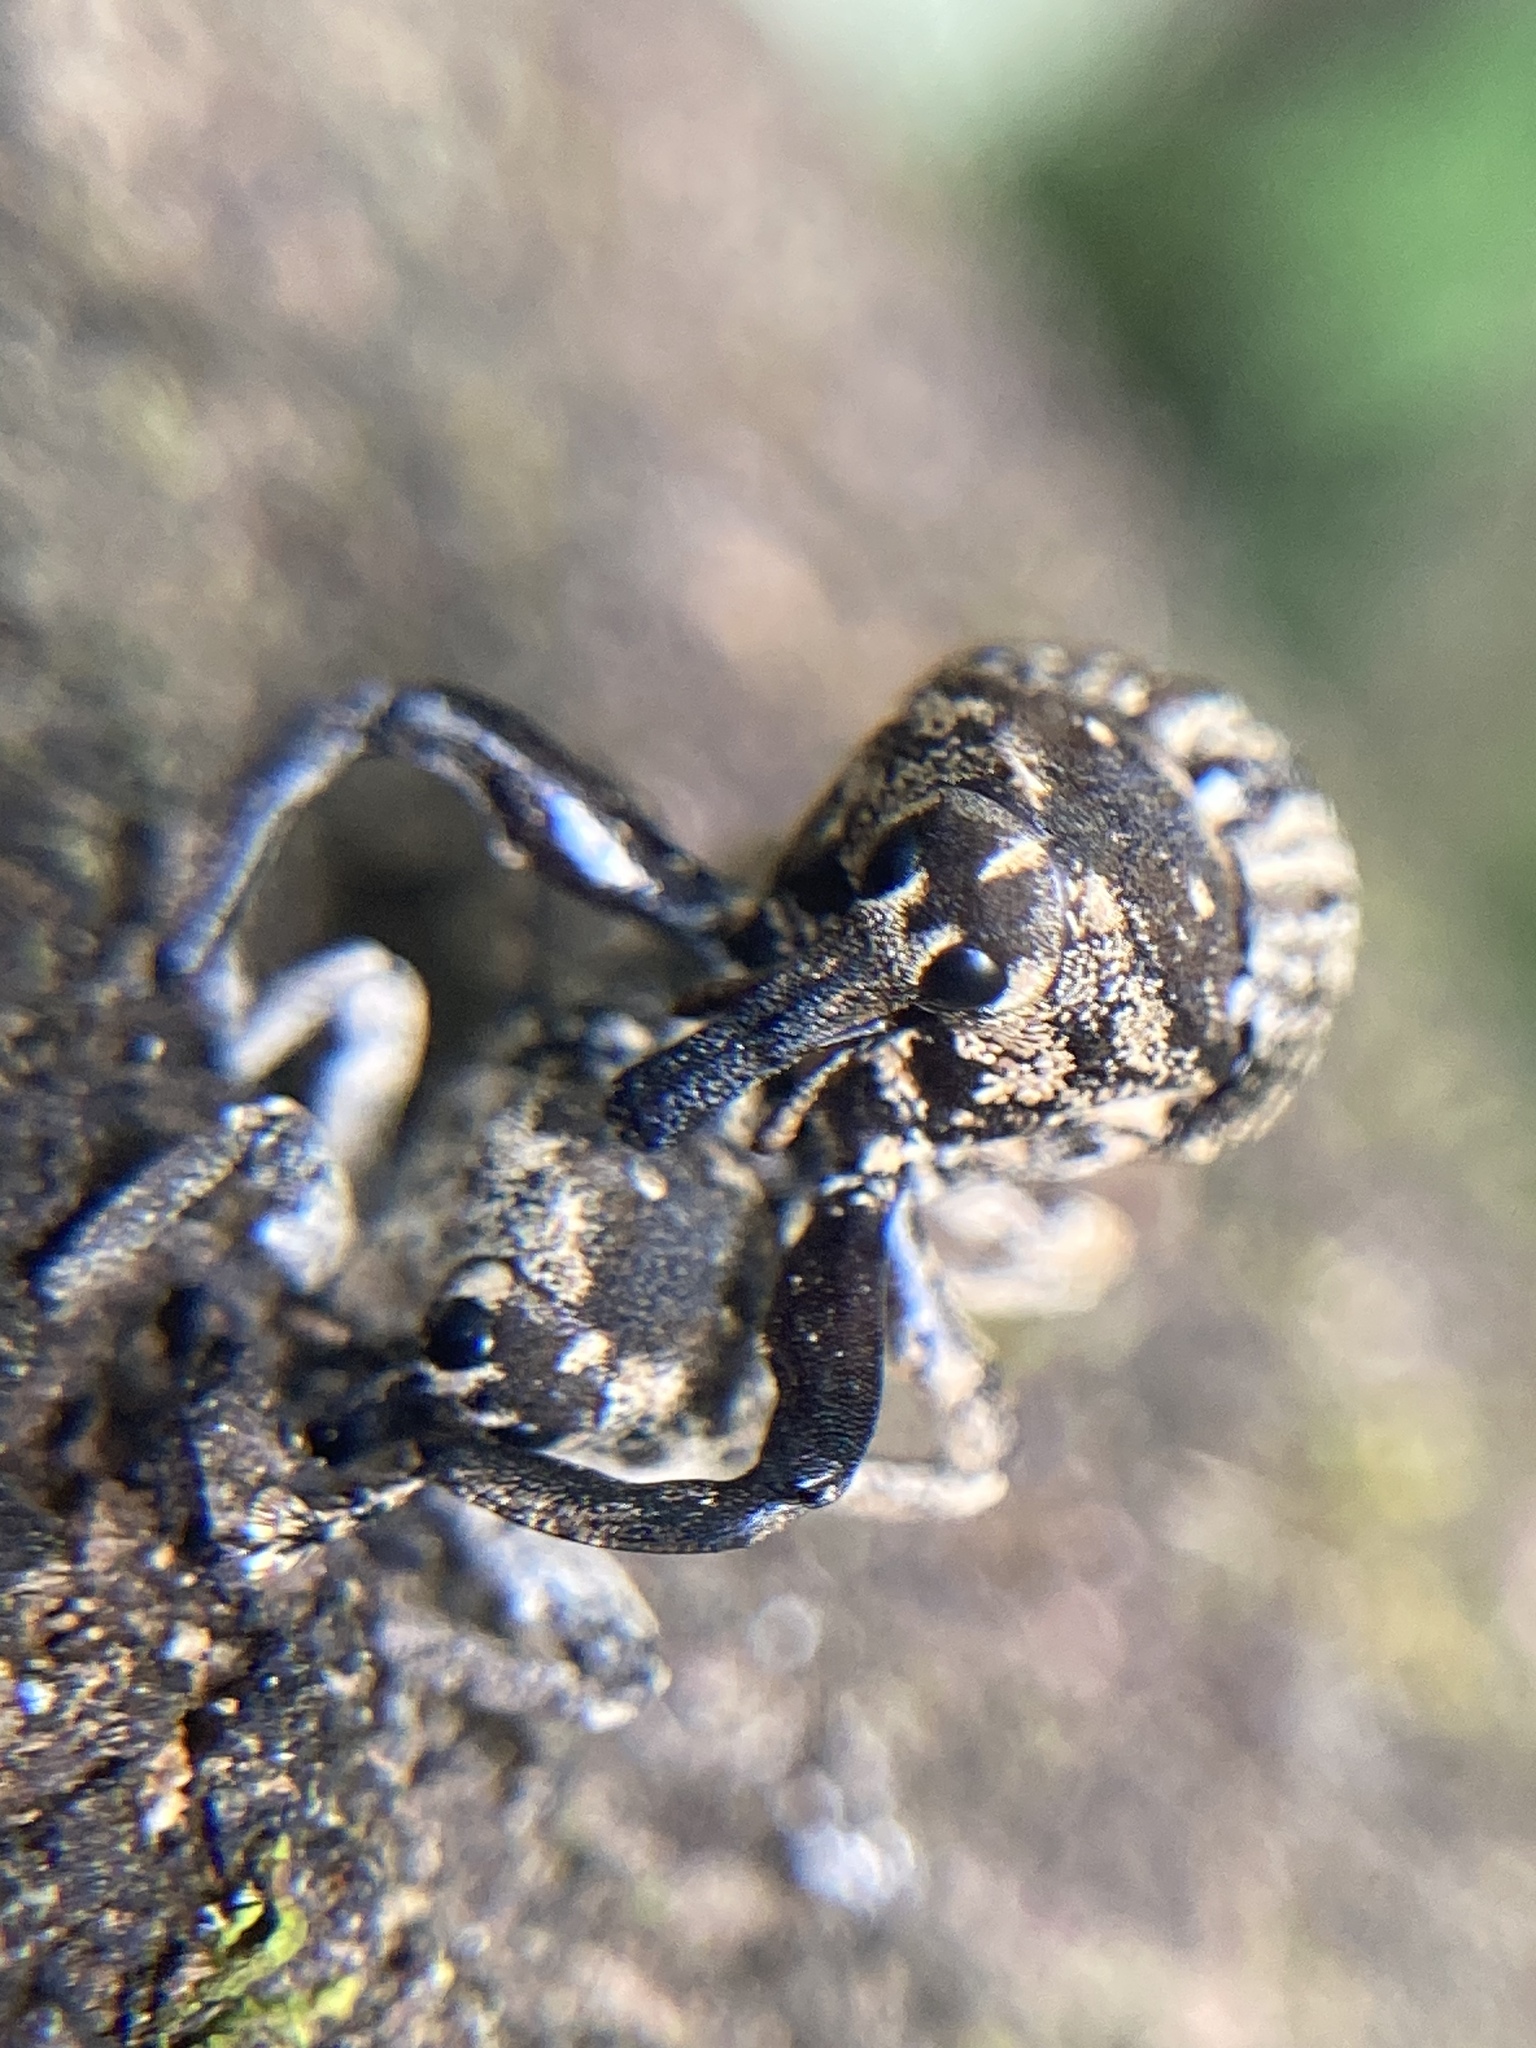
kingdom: Animalia
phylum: Arthropoda
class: Insecta
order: Coleoptera
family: Curculionidae
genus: Eutyrhinus
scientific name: Eutyrhinus meditabundus
